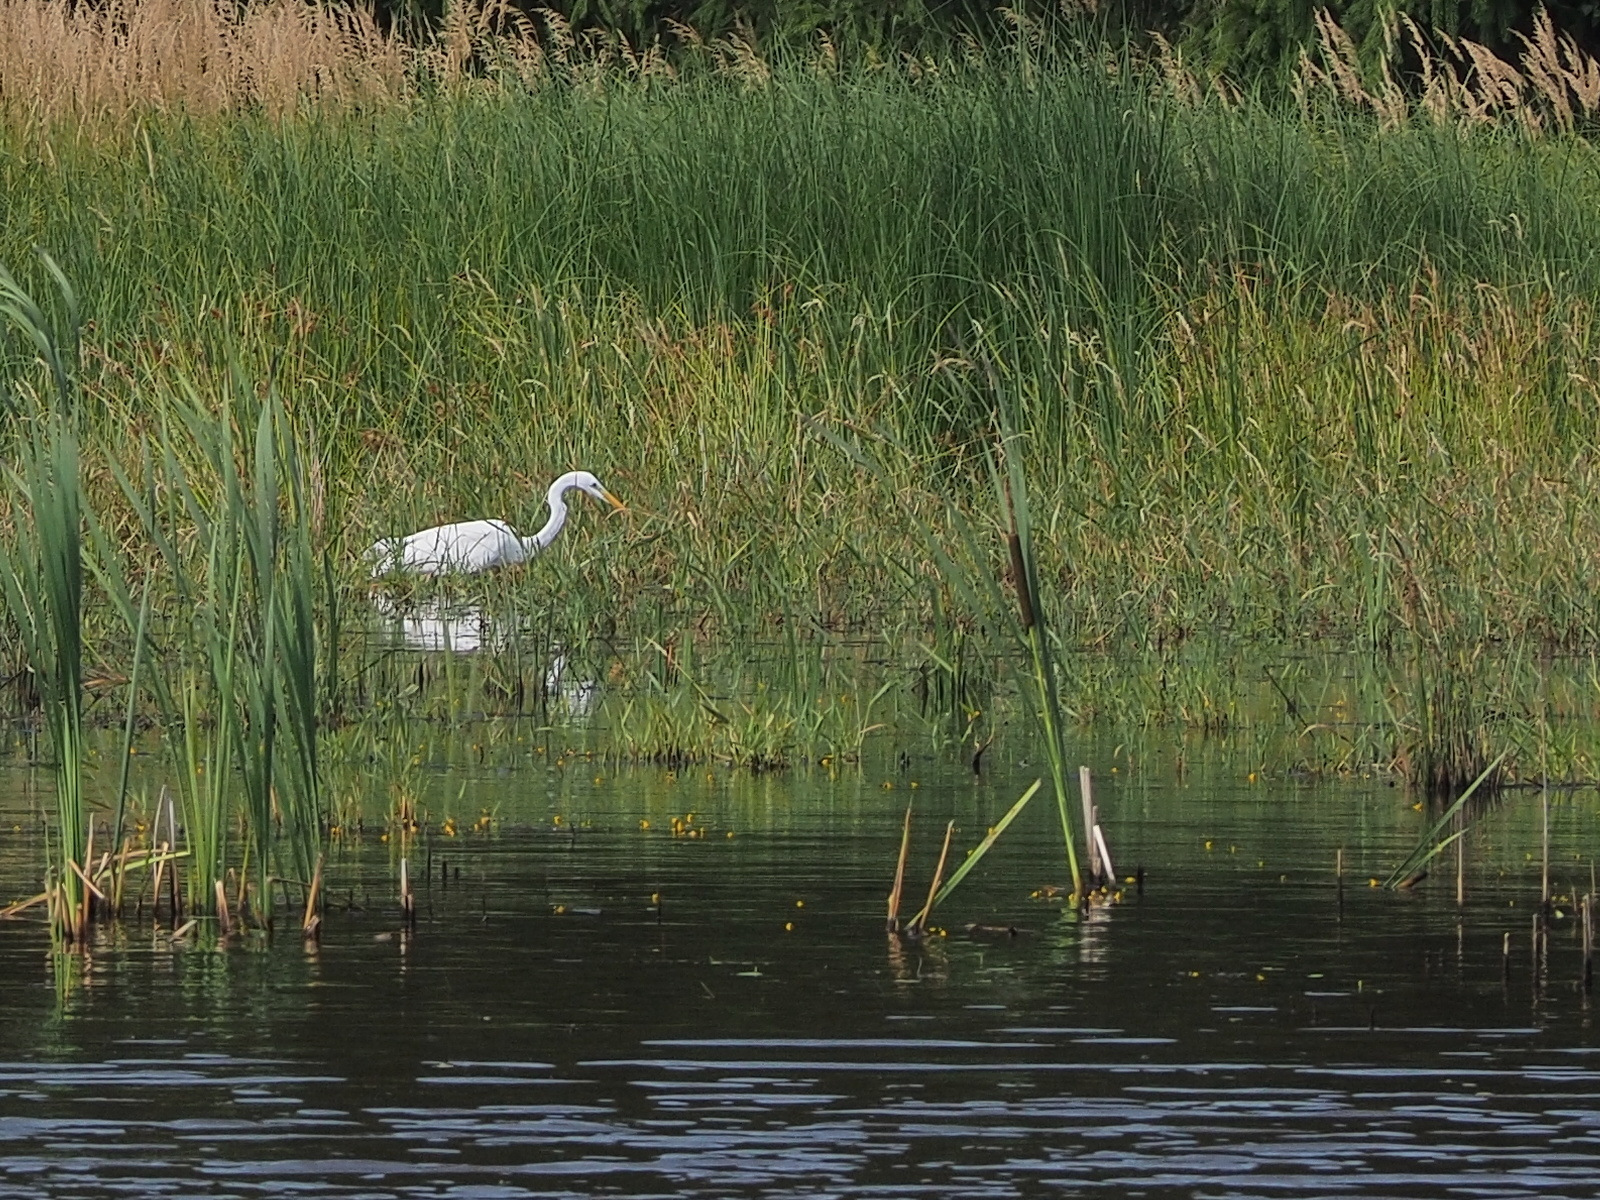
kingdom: Animalia
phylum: Chordata
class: Aves
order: Pelecaniformes
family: Ardeidae
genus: Ardea
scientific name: Ardea alba
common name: Great egret
